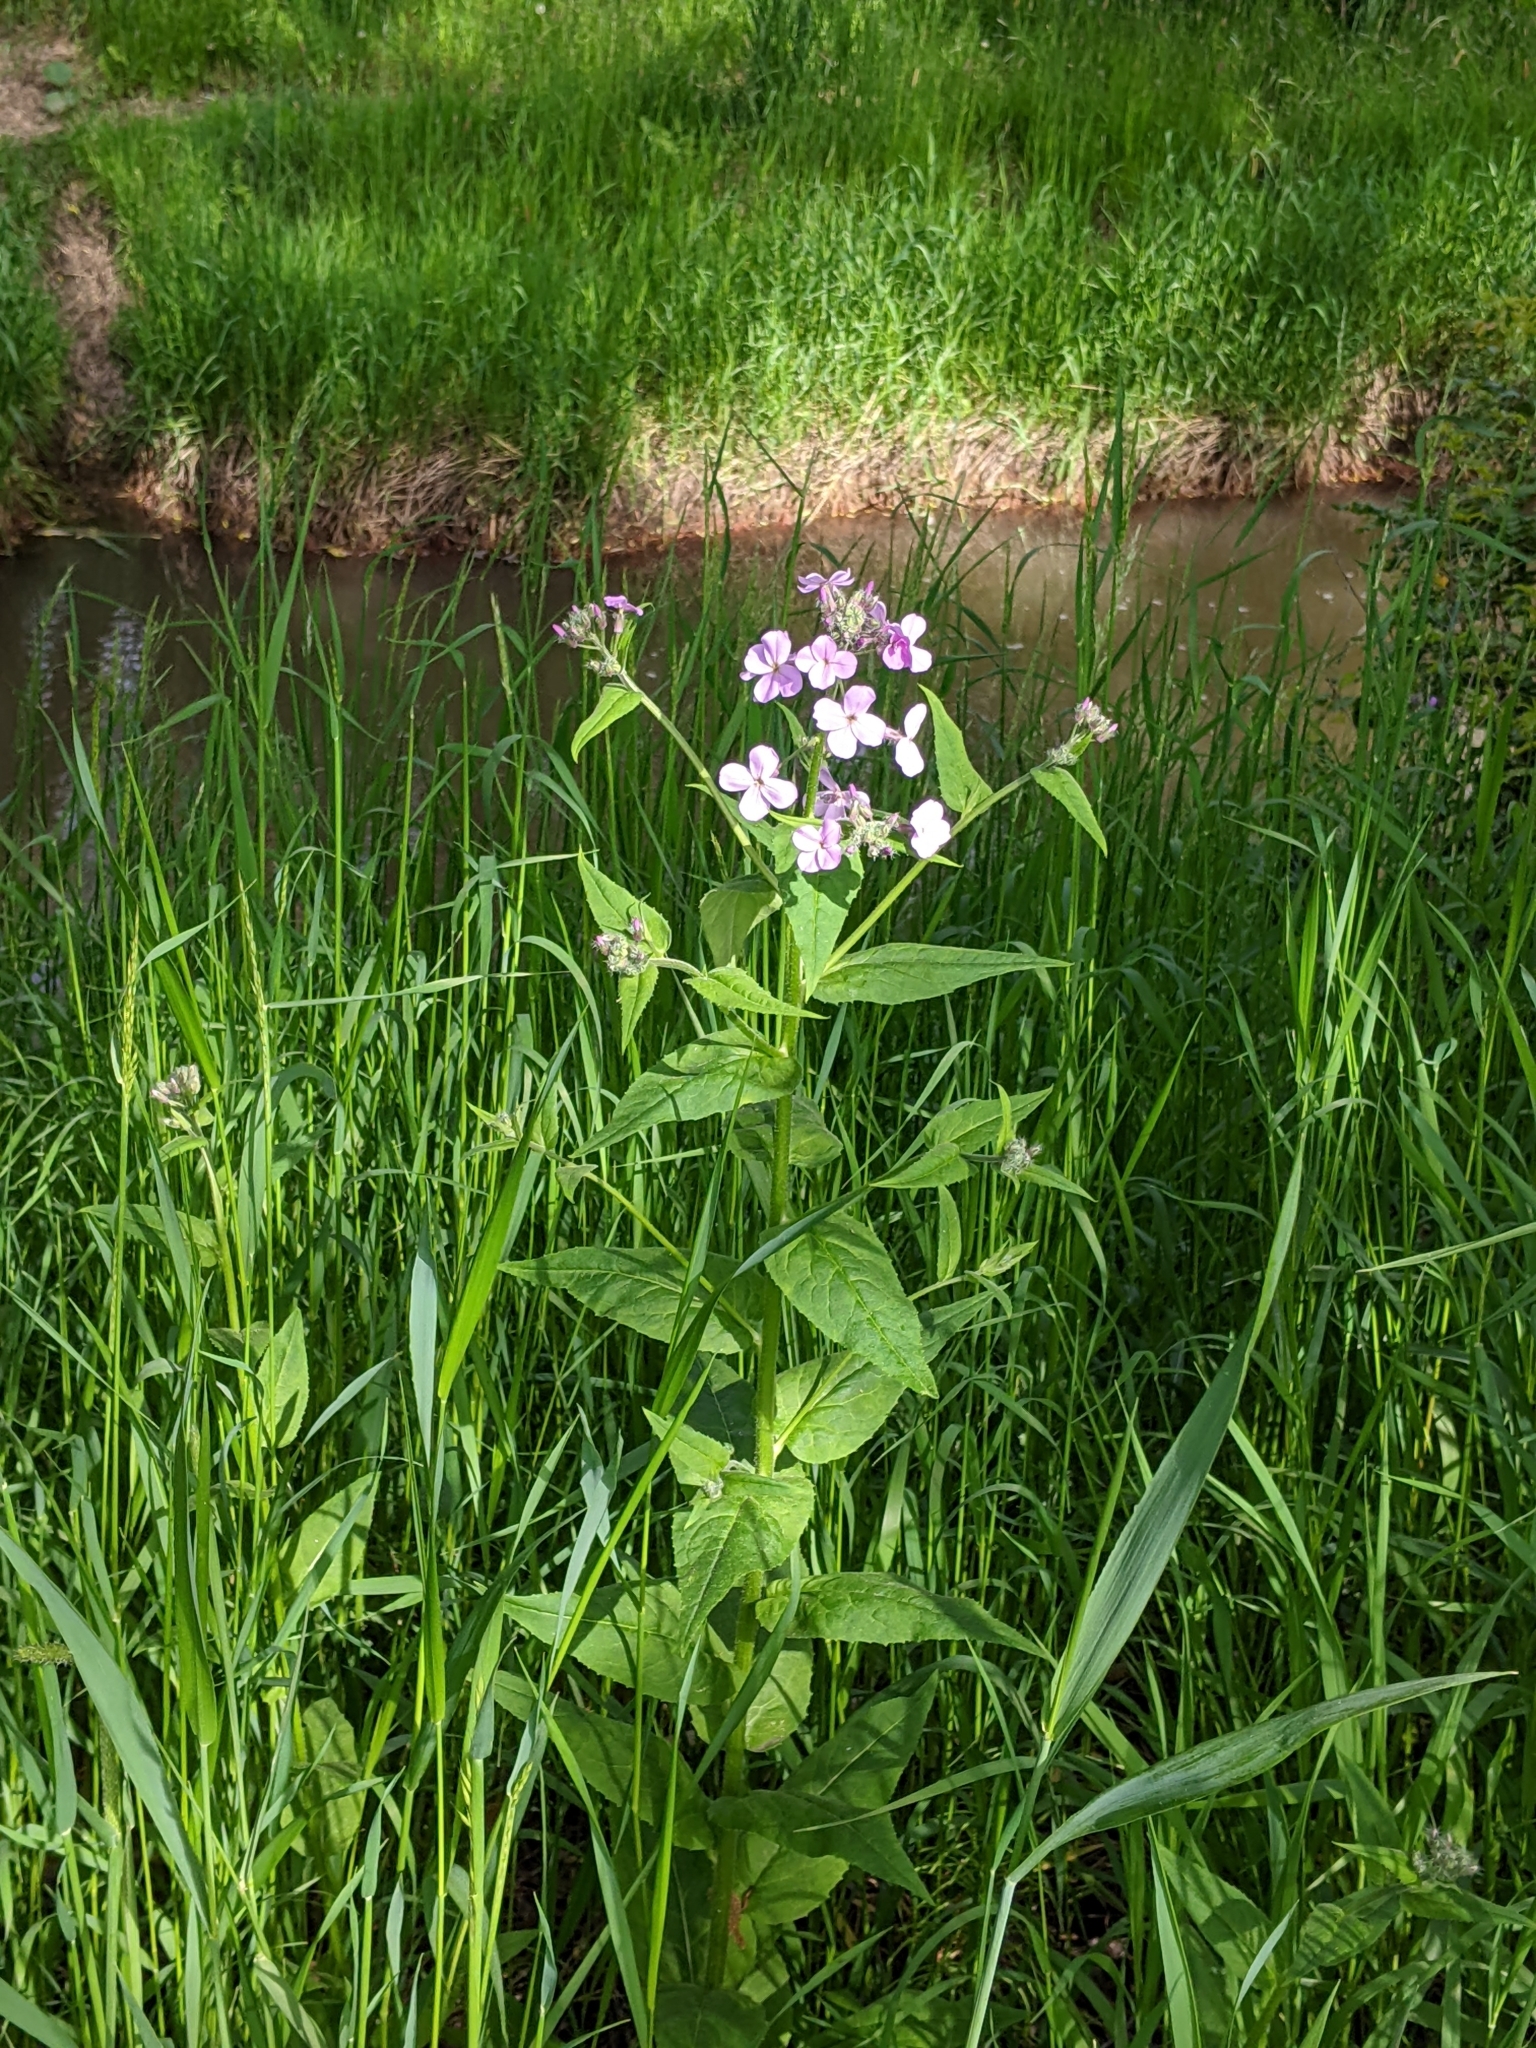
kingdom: Plantae
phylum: Tracheophyta
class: Magnoliopsida
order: Brassicales
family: Brassicaceae
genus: Hesperis
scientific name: Hesperis matronalis
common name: Dame's-violet
